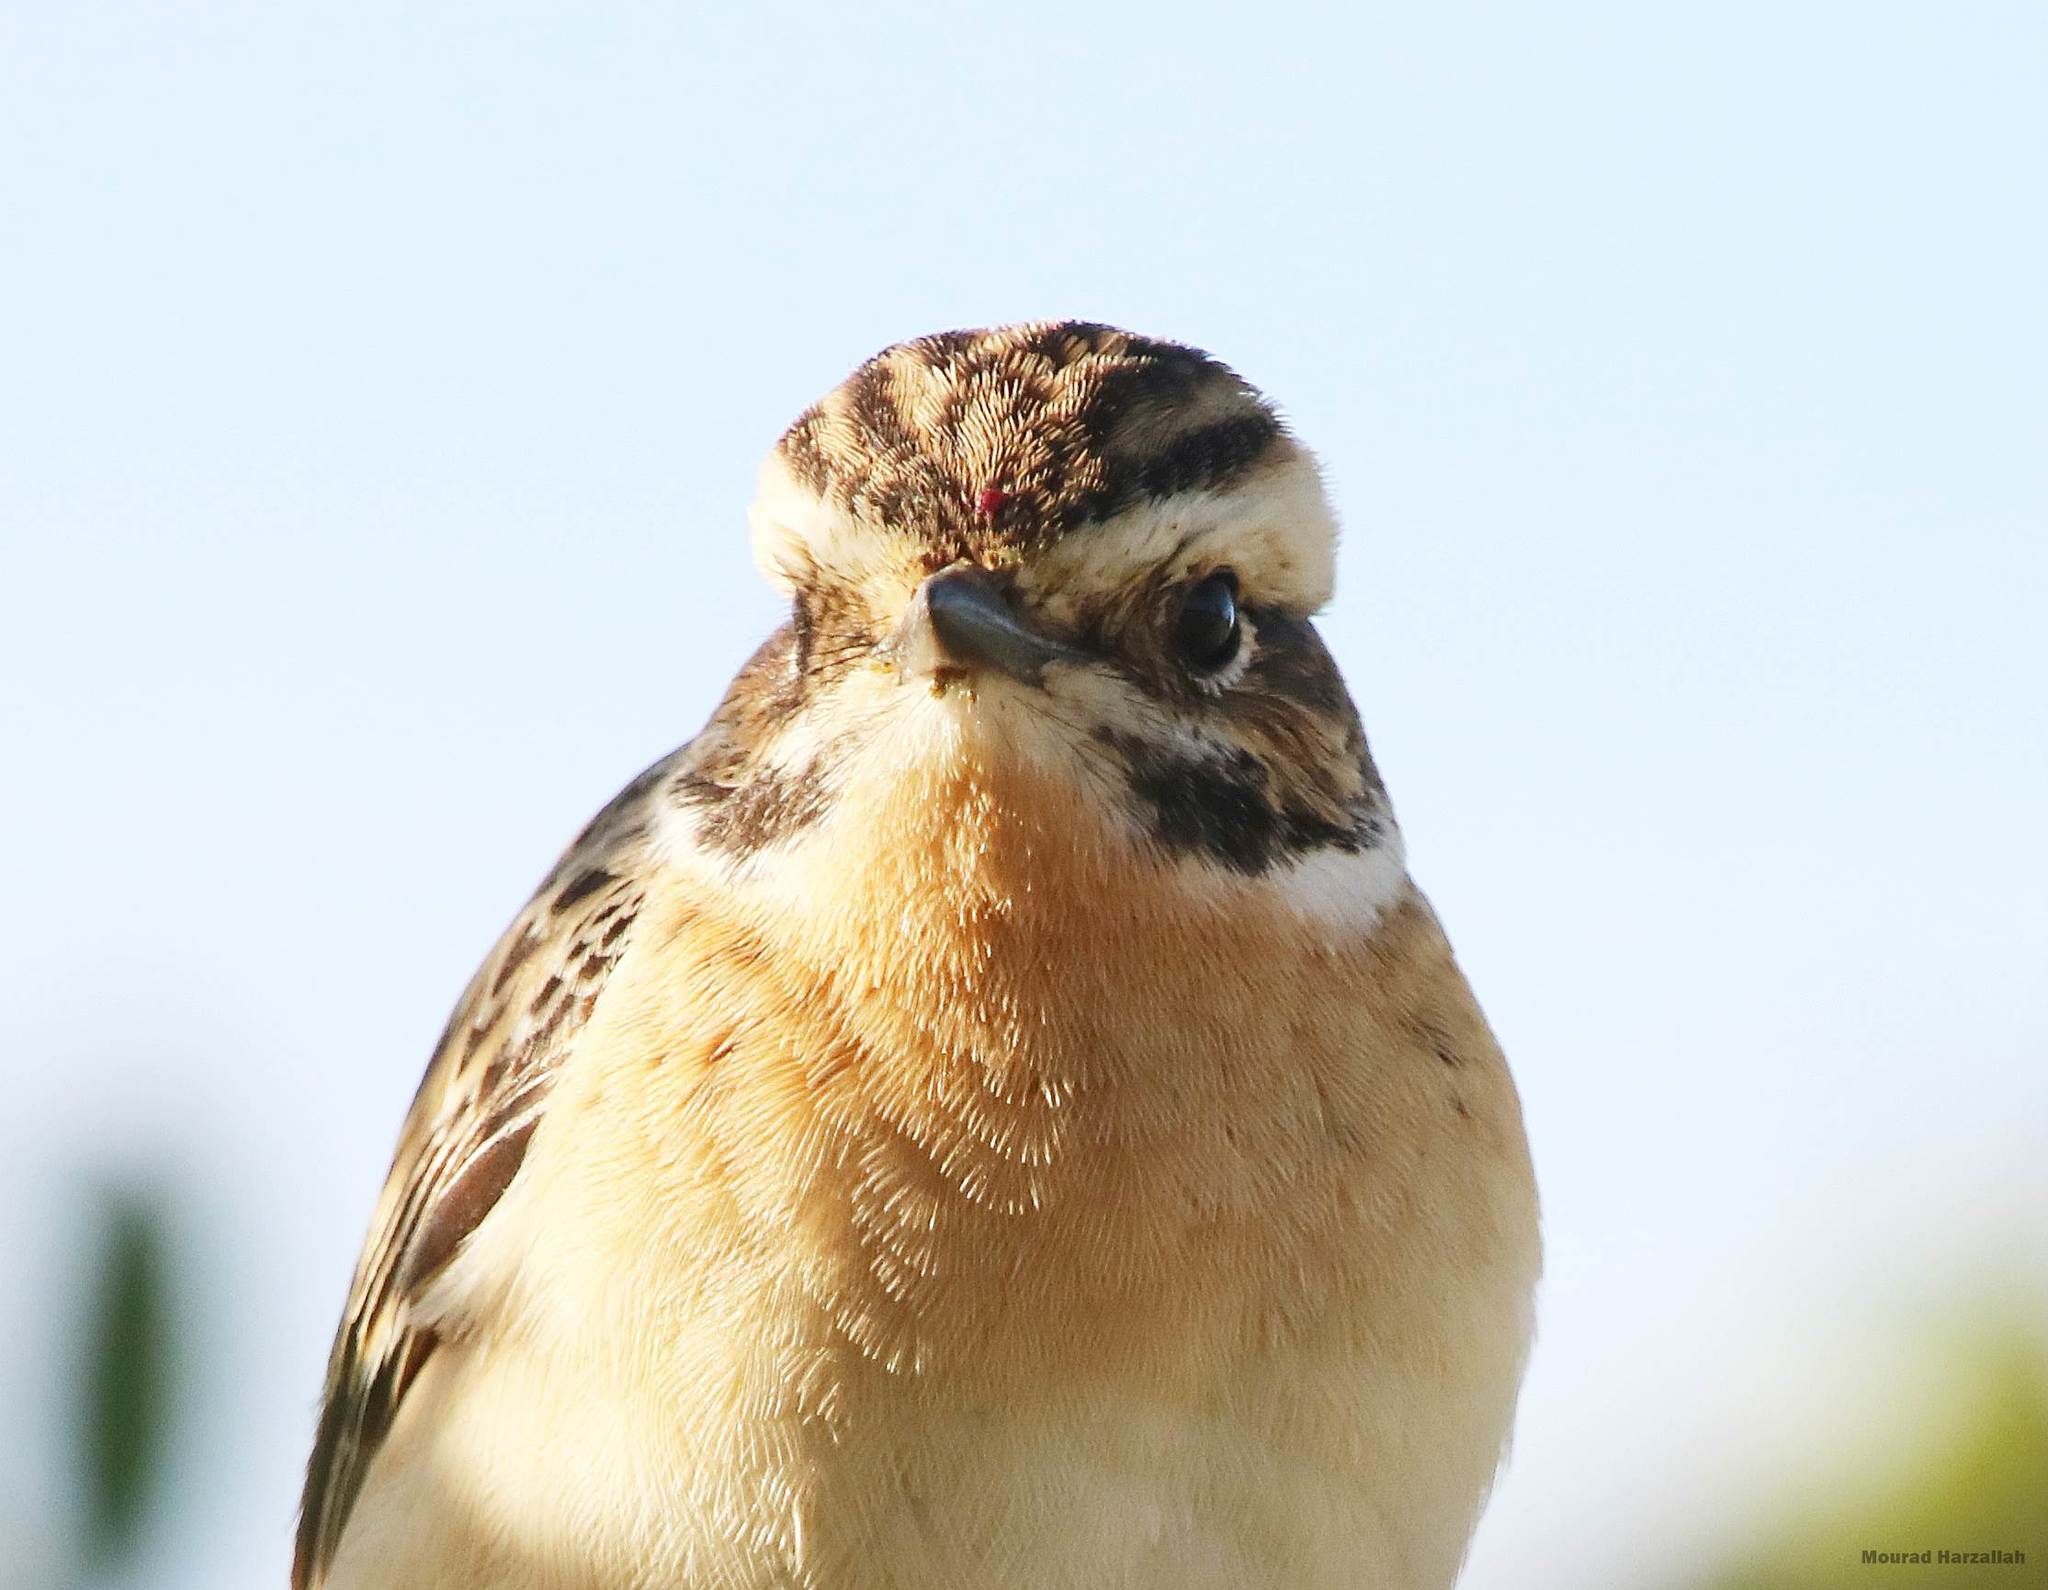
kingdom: Animalia
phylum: Chordata
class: Aves
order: Passeriformes
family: Muscicapidae
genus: Saxicola
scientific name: Saxicola rubetra
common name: Whinchat
